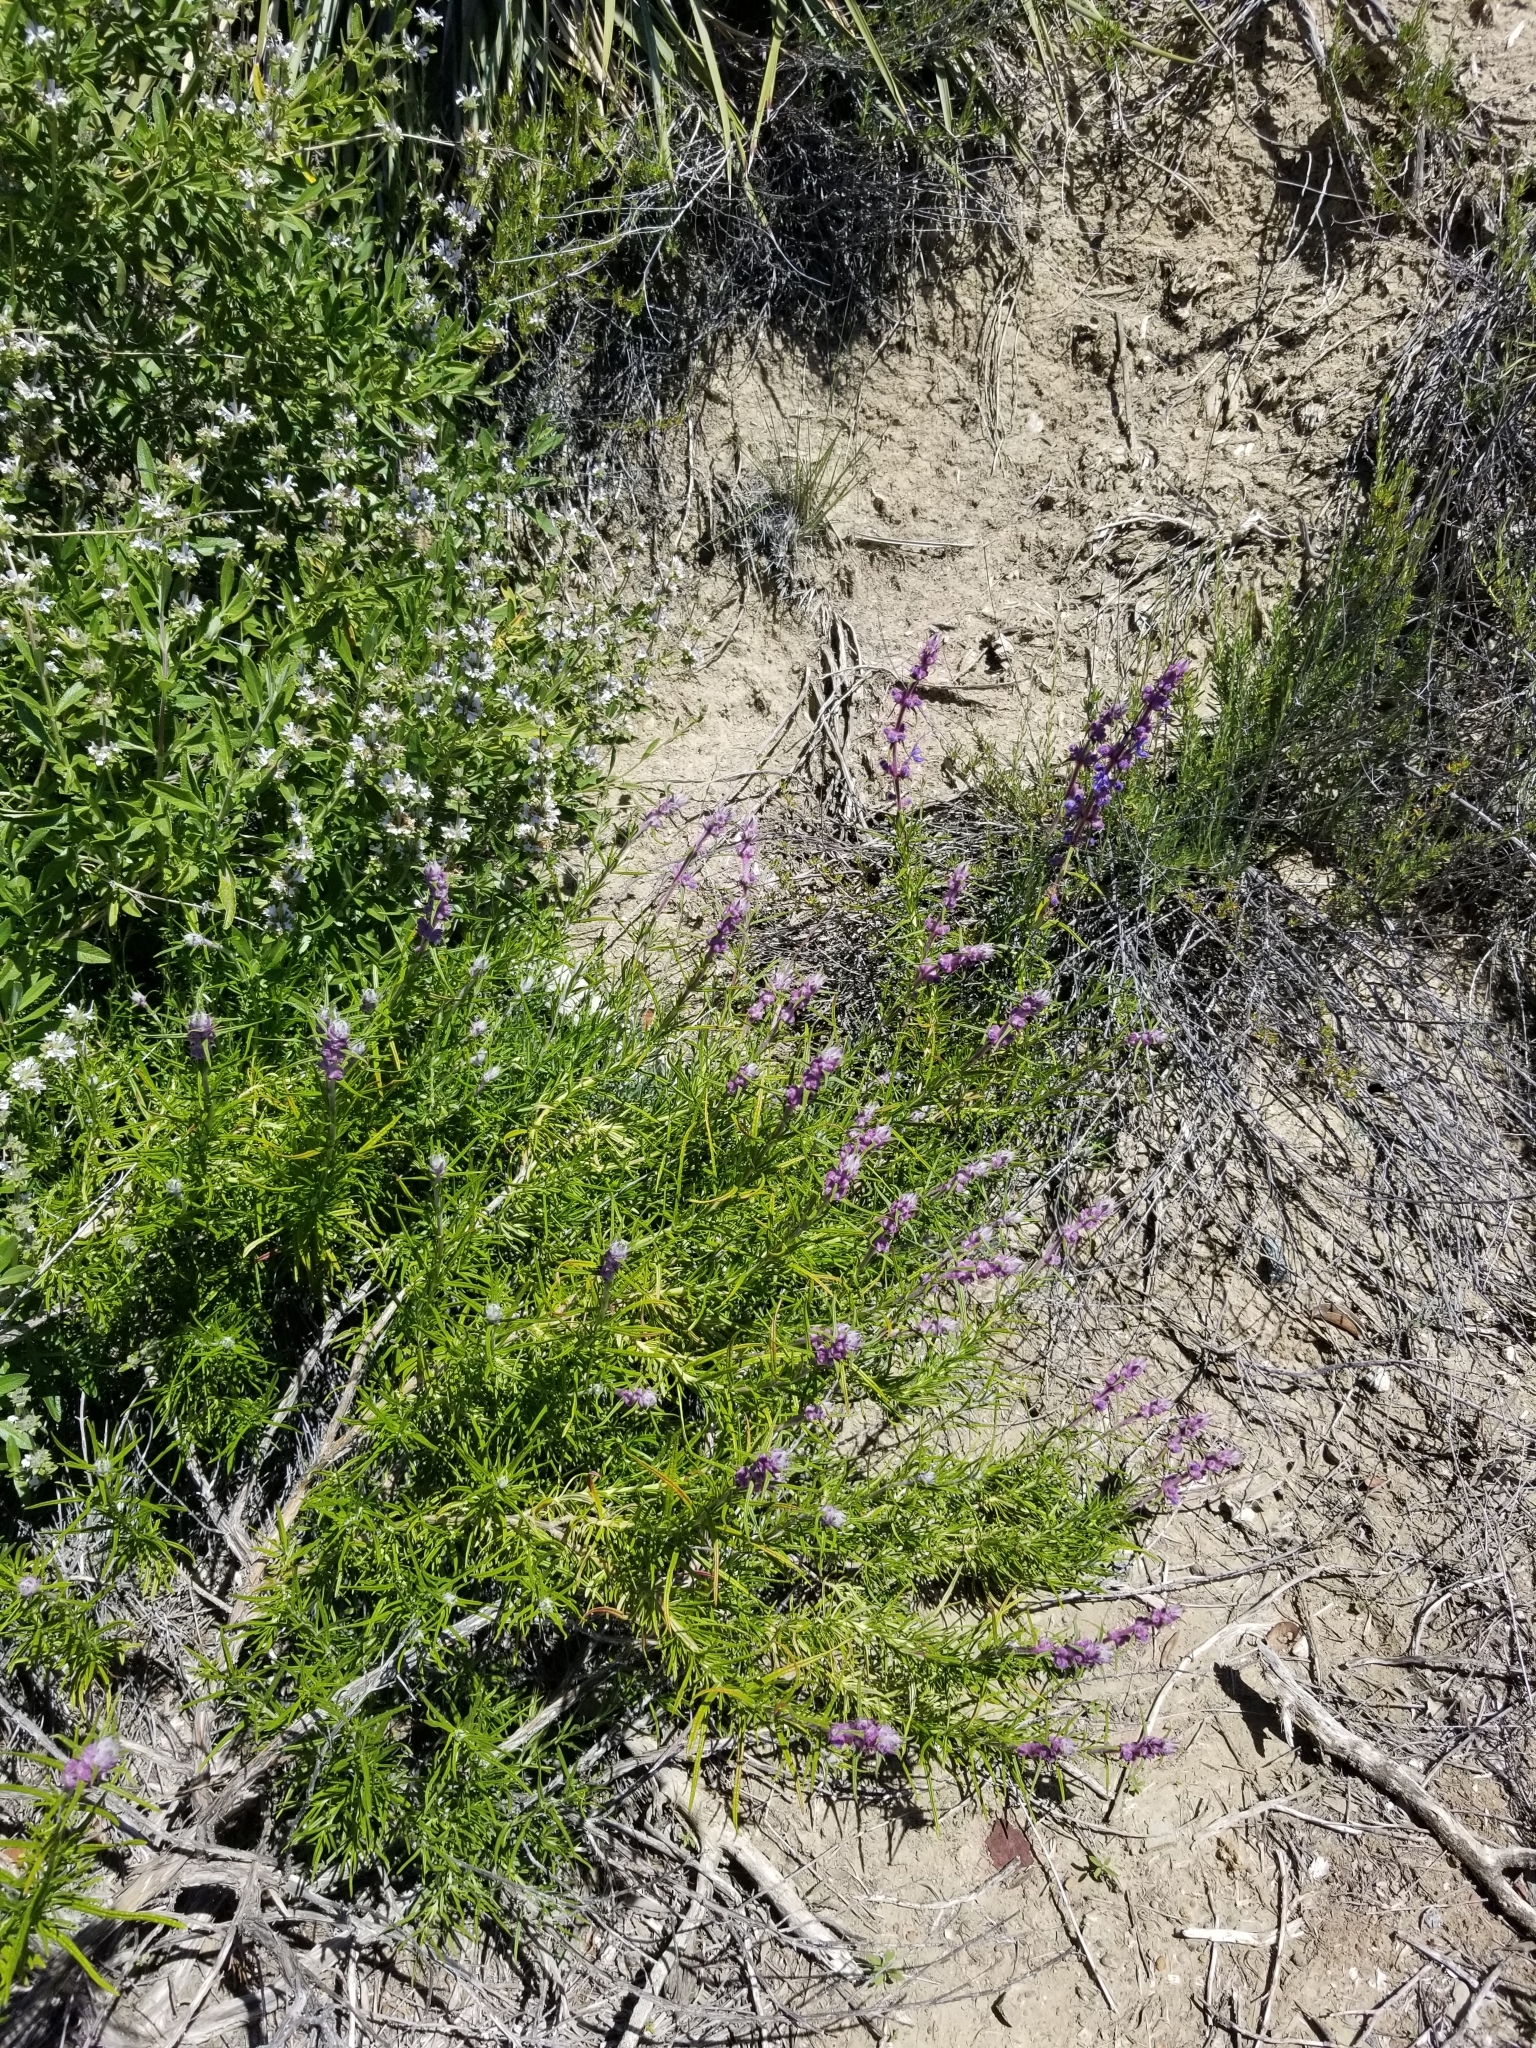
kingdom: Plantae
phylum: Tracheophyta
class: Magnoliopsida
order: Lamiales
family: Lamiaceae
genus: Trichostema
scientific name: Trichostema lanatum
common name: Woolly bluecurls
